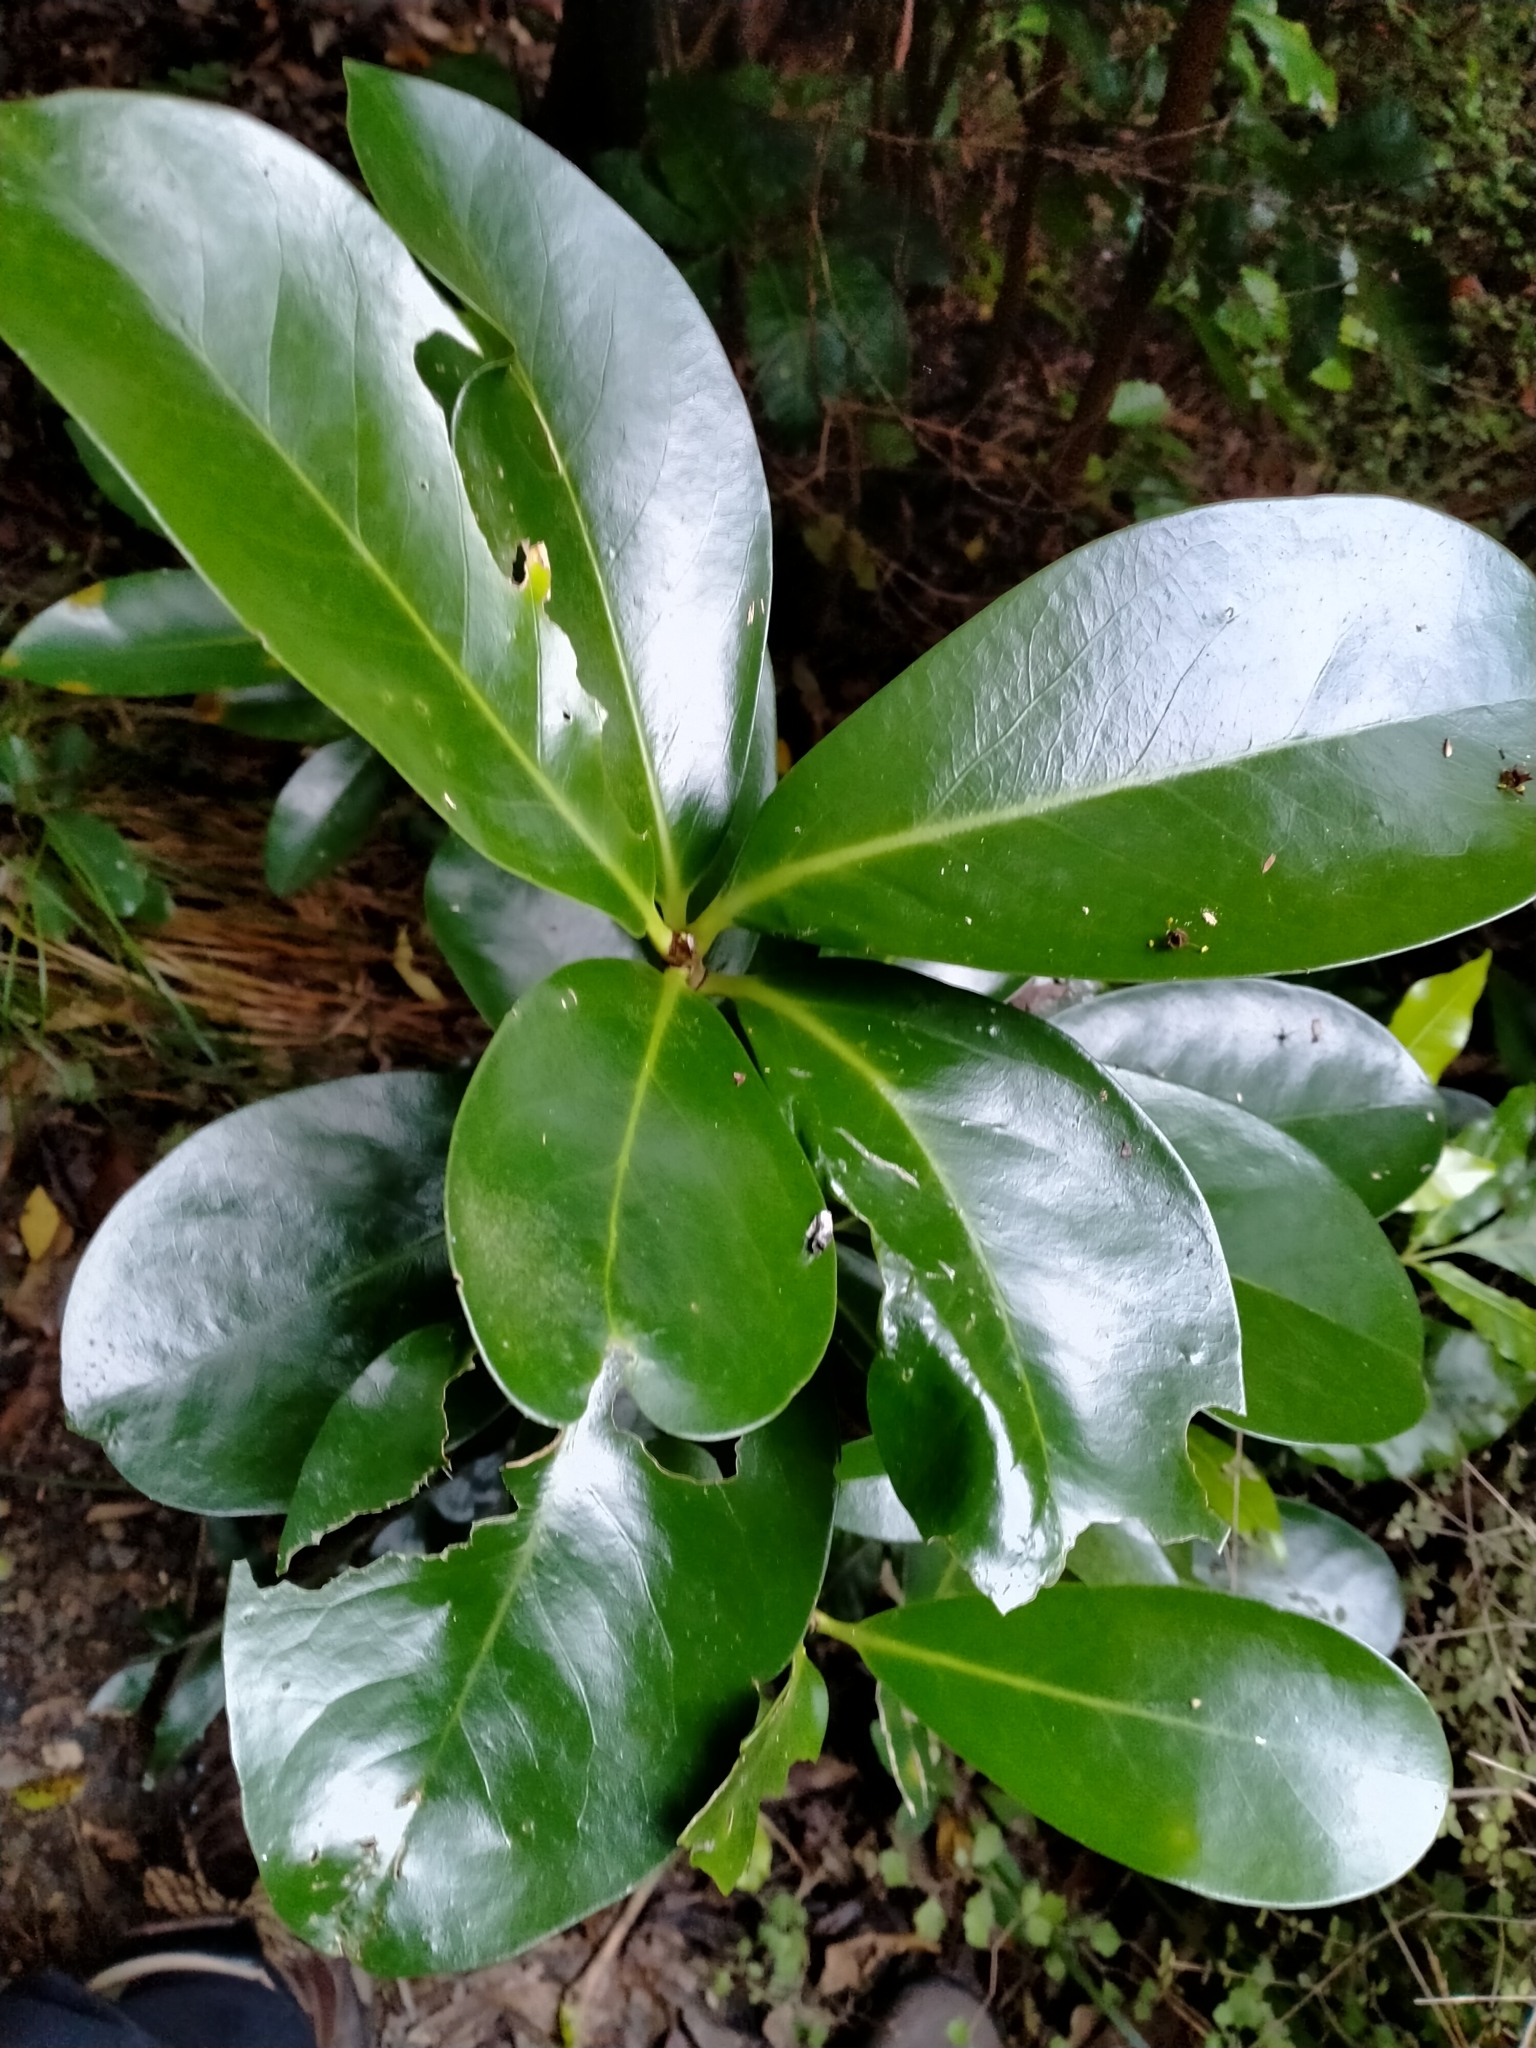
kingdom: Plantae
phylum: Tracheophyta
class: Magnoliopsida
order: Cucurbitales
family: Corynocarpaceae
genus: Corynocarpus
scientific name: Corynocarpus laevigatus
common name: New zealand laurel
